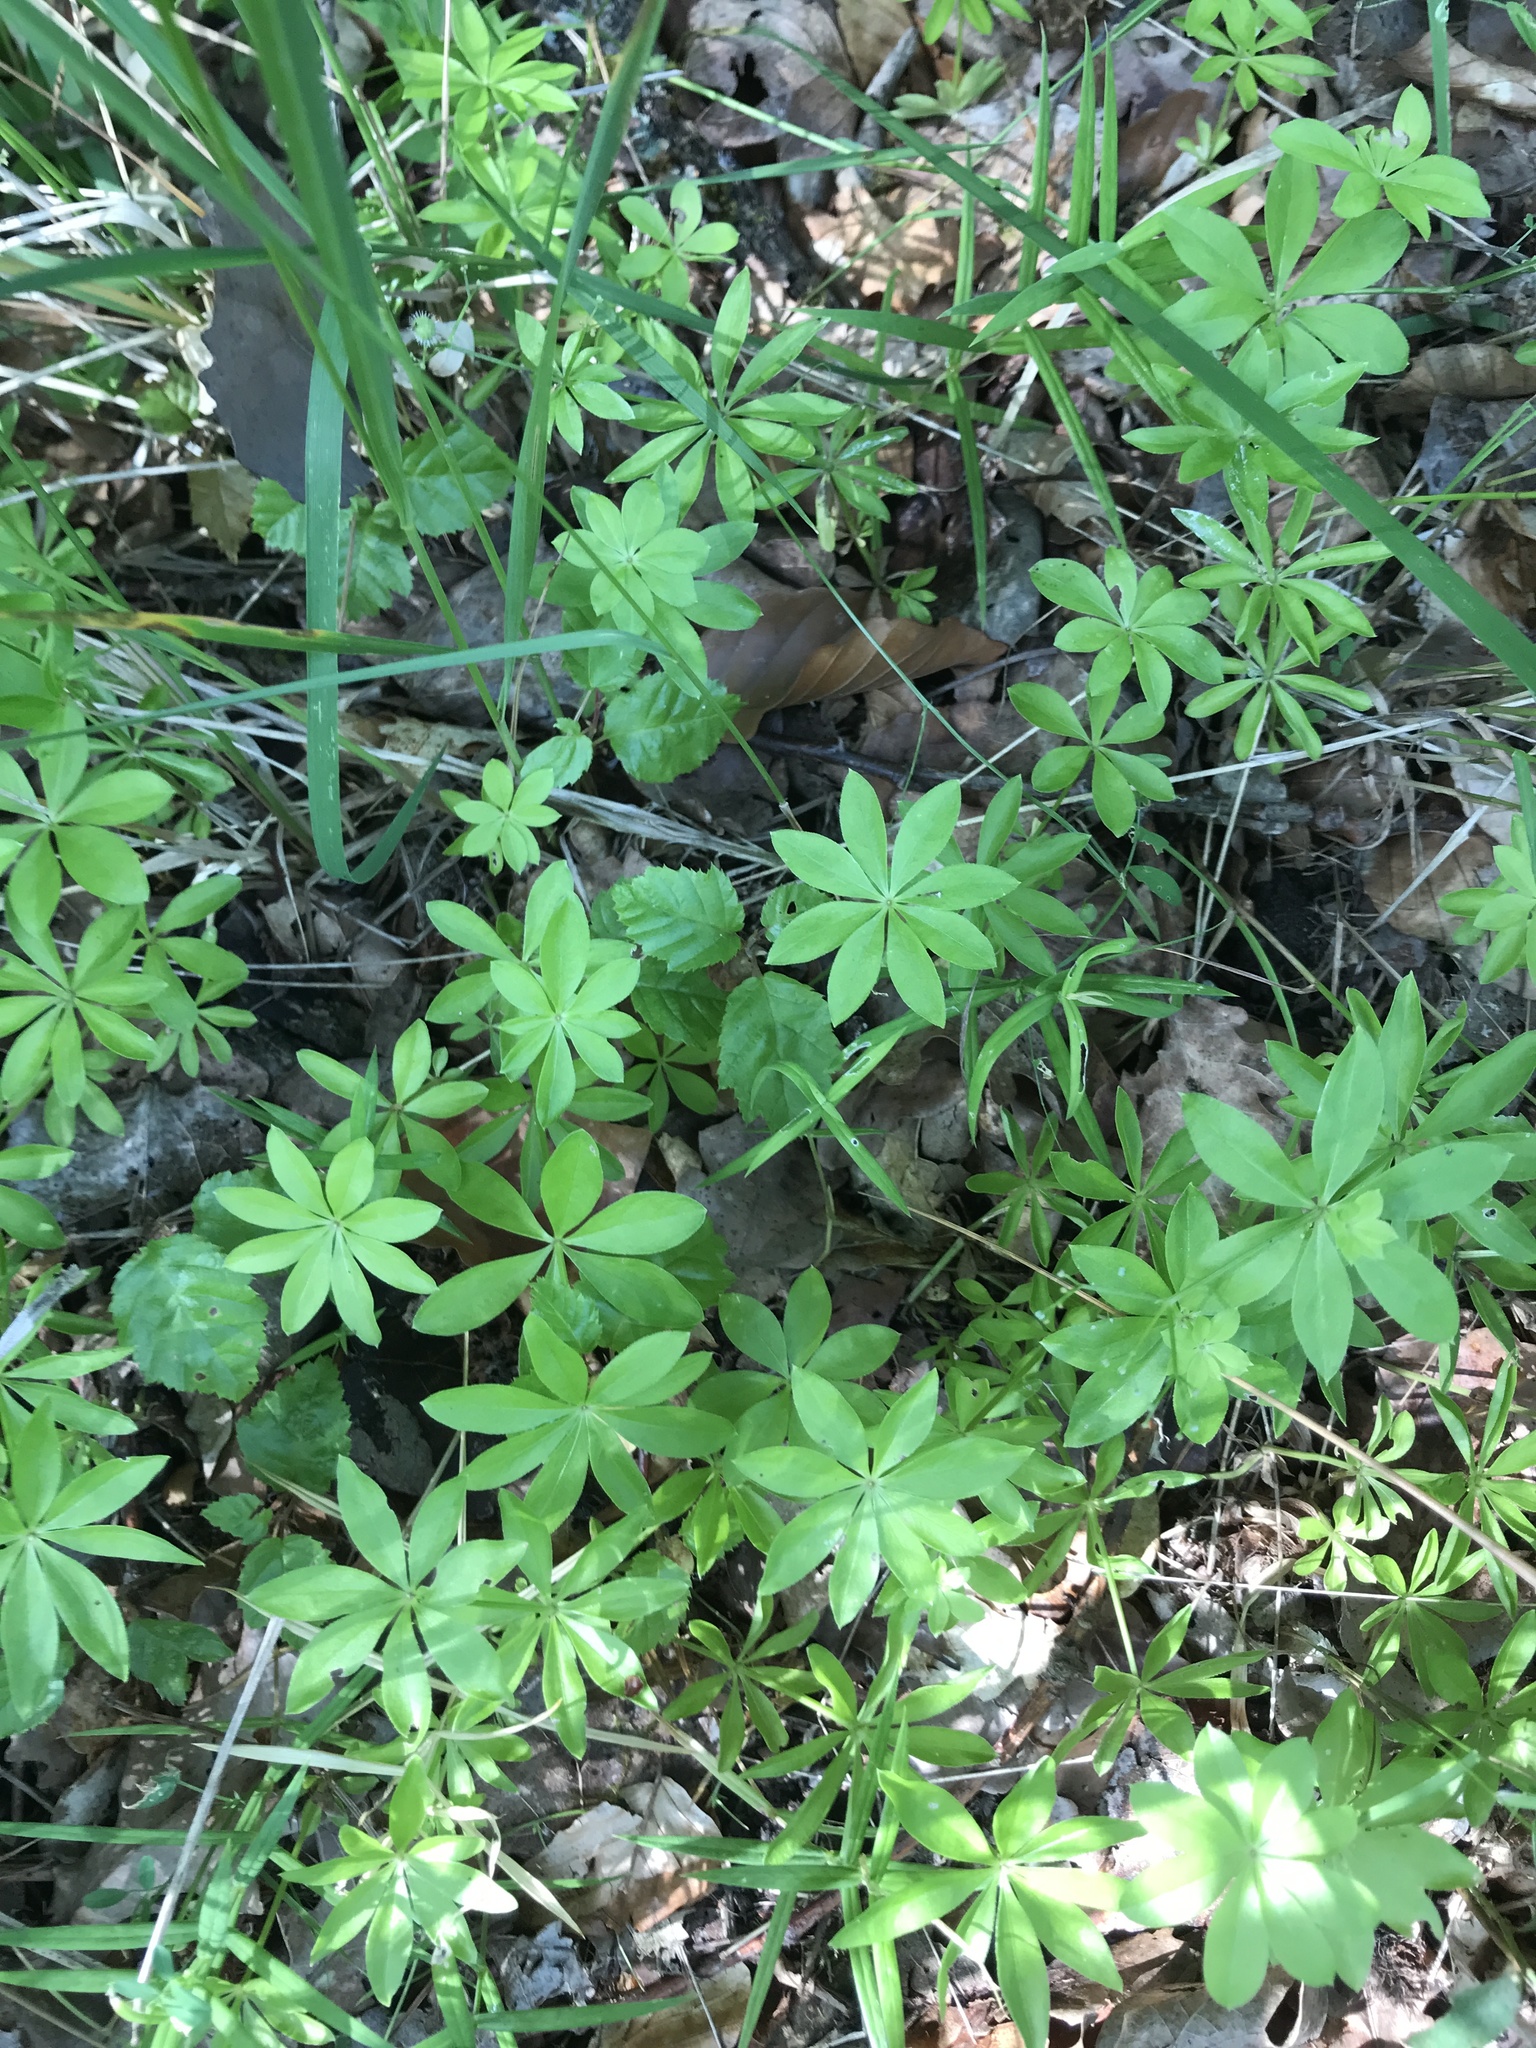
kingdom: Plantae
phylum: Tracheophyta
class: Magnoliopsida
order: Gentianales
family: Rubiaceae
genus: Galium
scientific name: Galium odoratum
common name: Sweet woodruff
